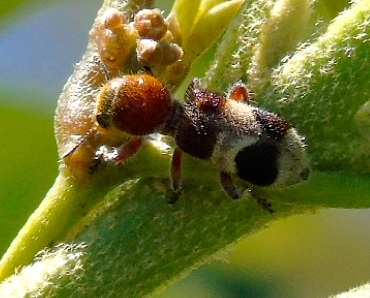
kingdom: Animalia
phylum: Arthropoda
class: Insecta
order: Coleoptera
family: Cleridae
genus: Enoclerus
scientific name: Enoclerus
